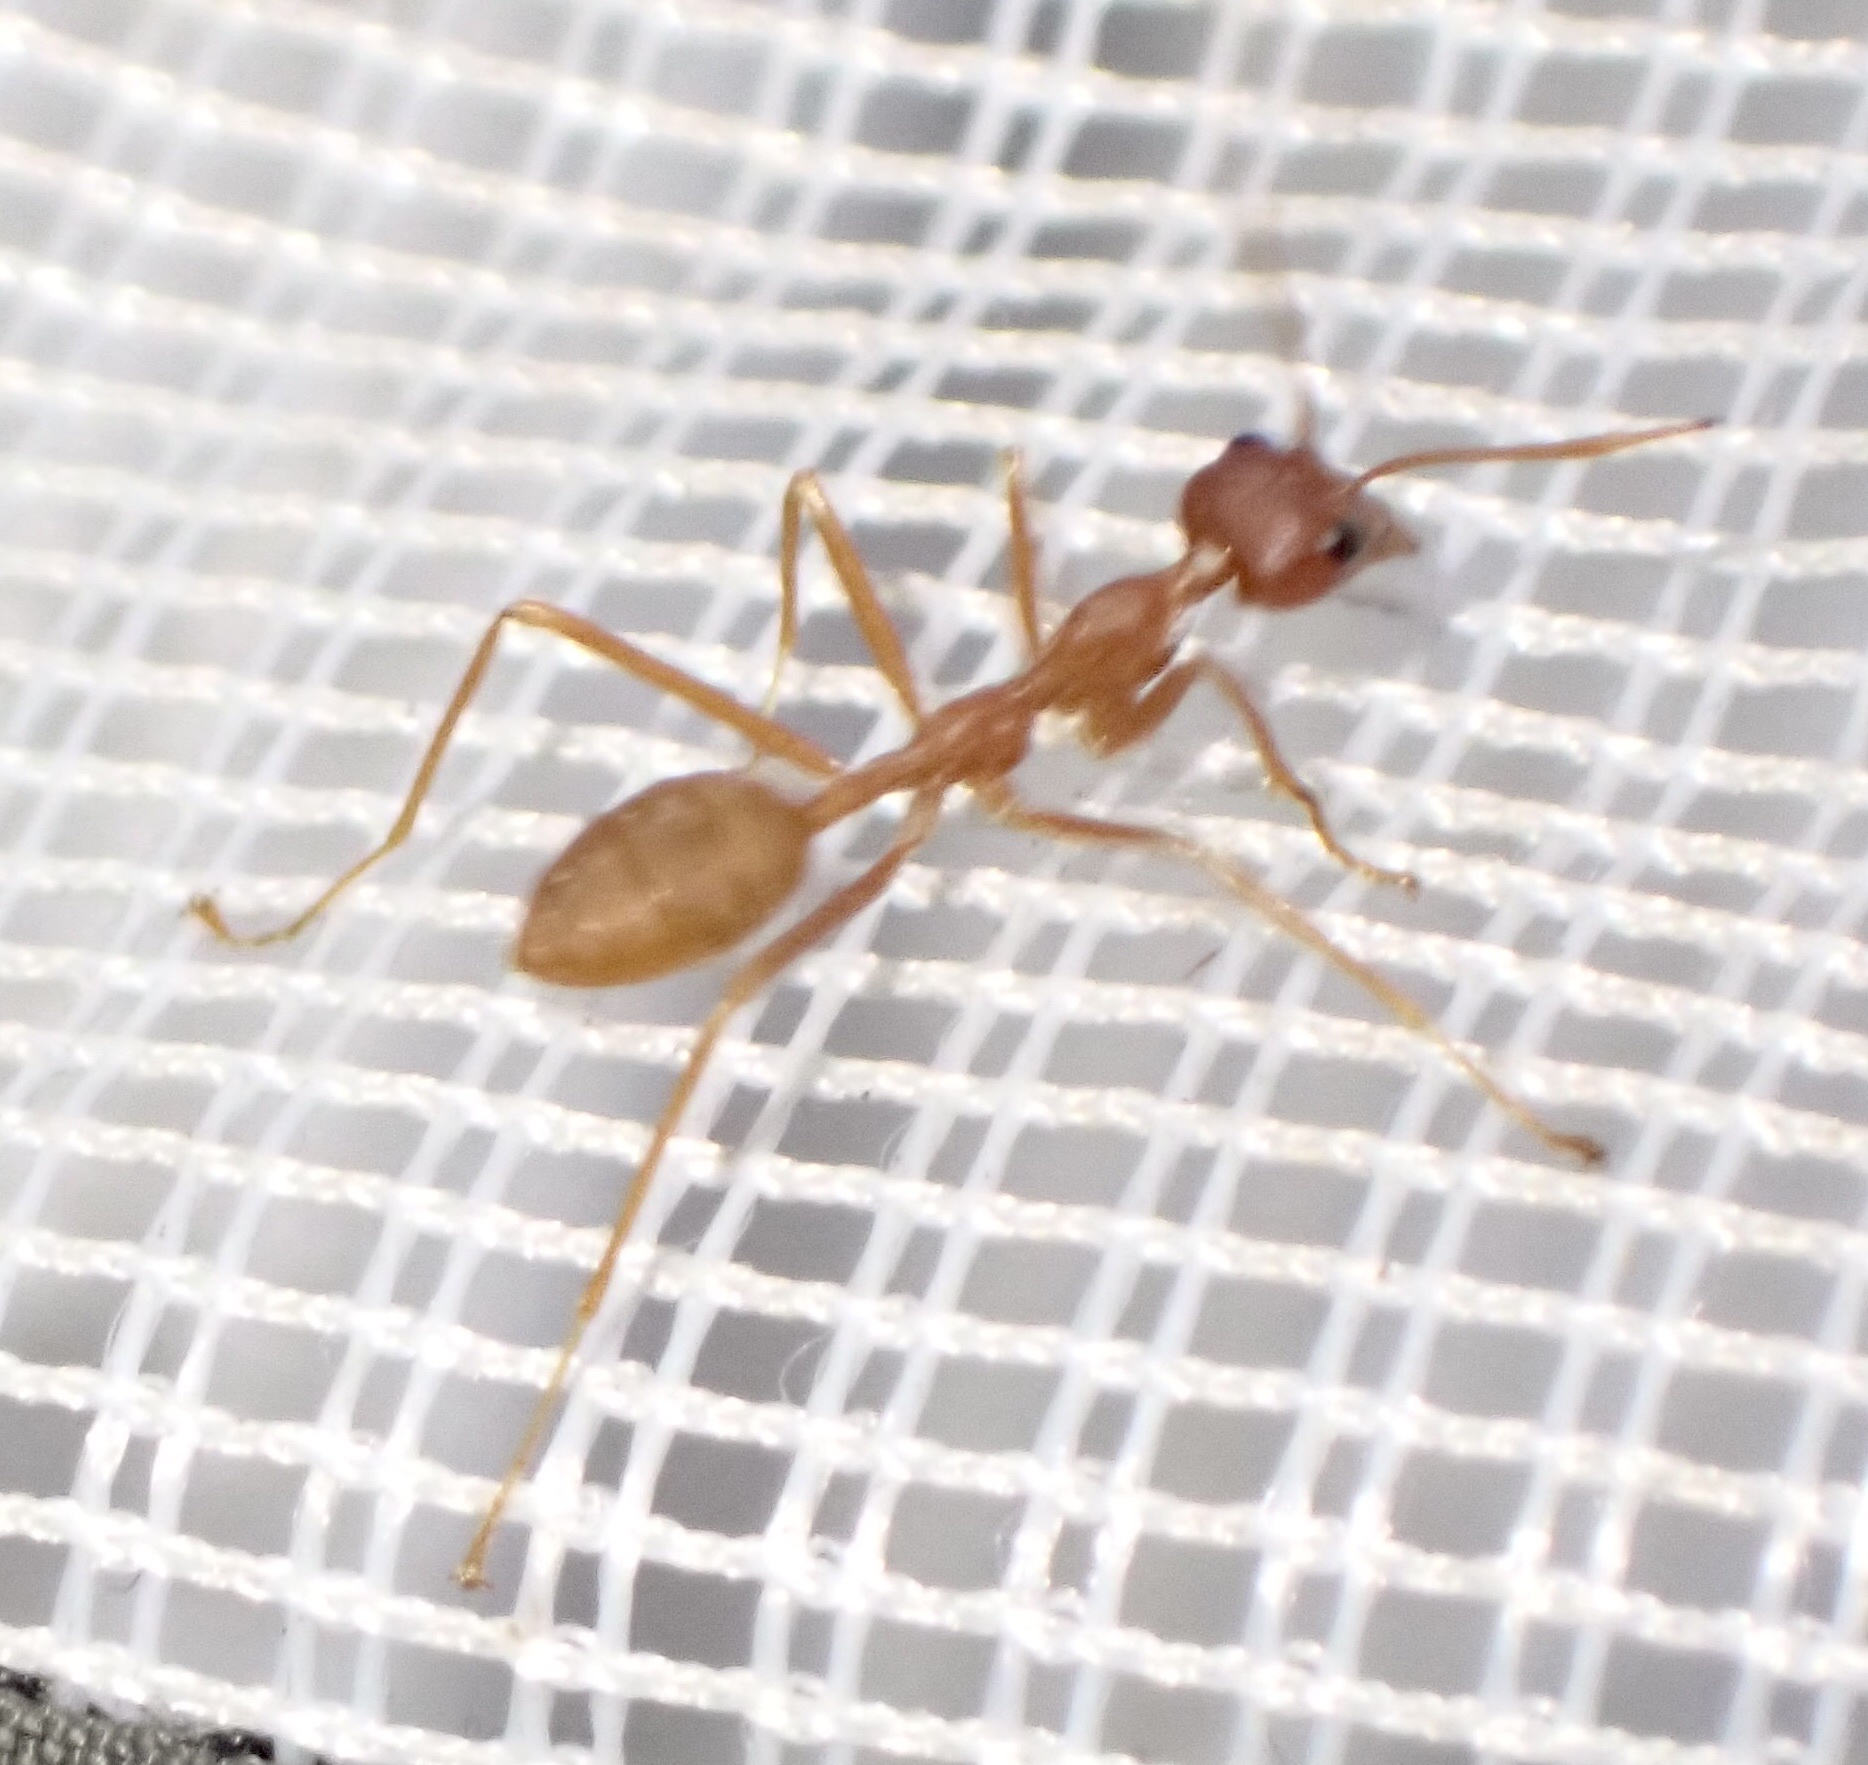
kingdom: Animalia
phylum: Arthropoda
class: Insecta
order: Hymenoptera
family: Formicidae
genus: Oecophylla
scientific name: Oecophylla longinoda
